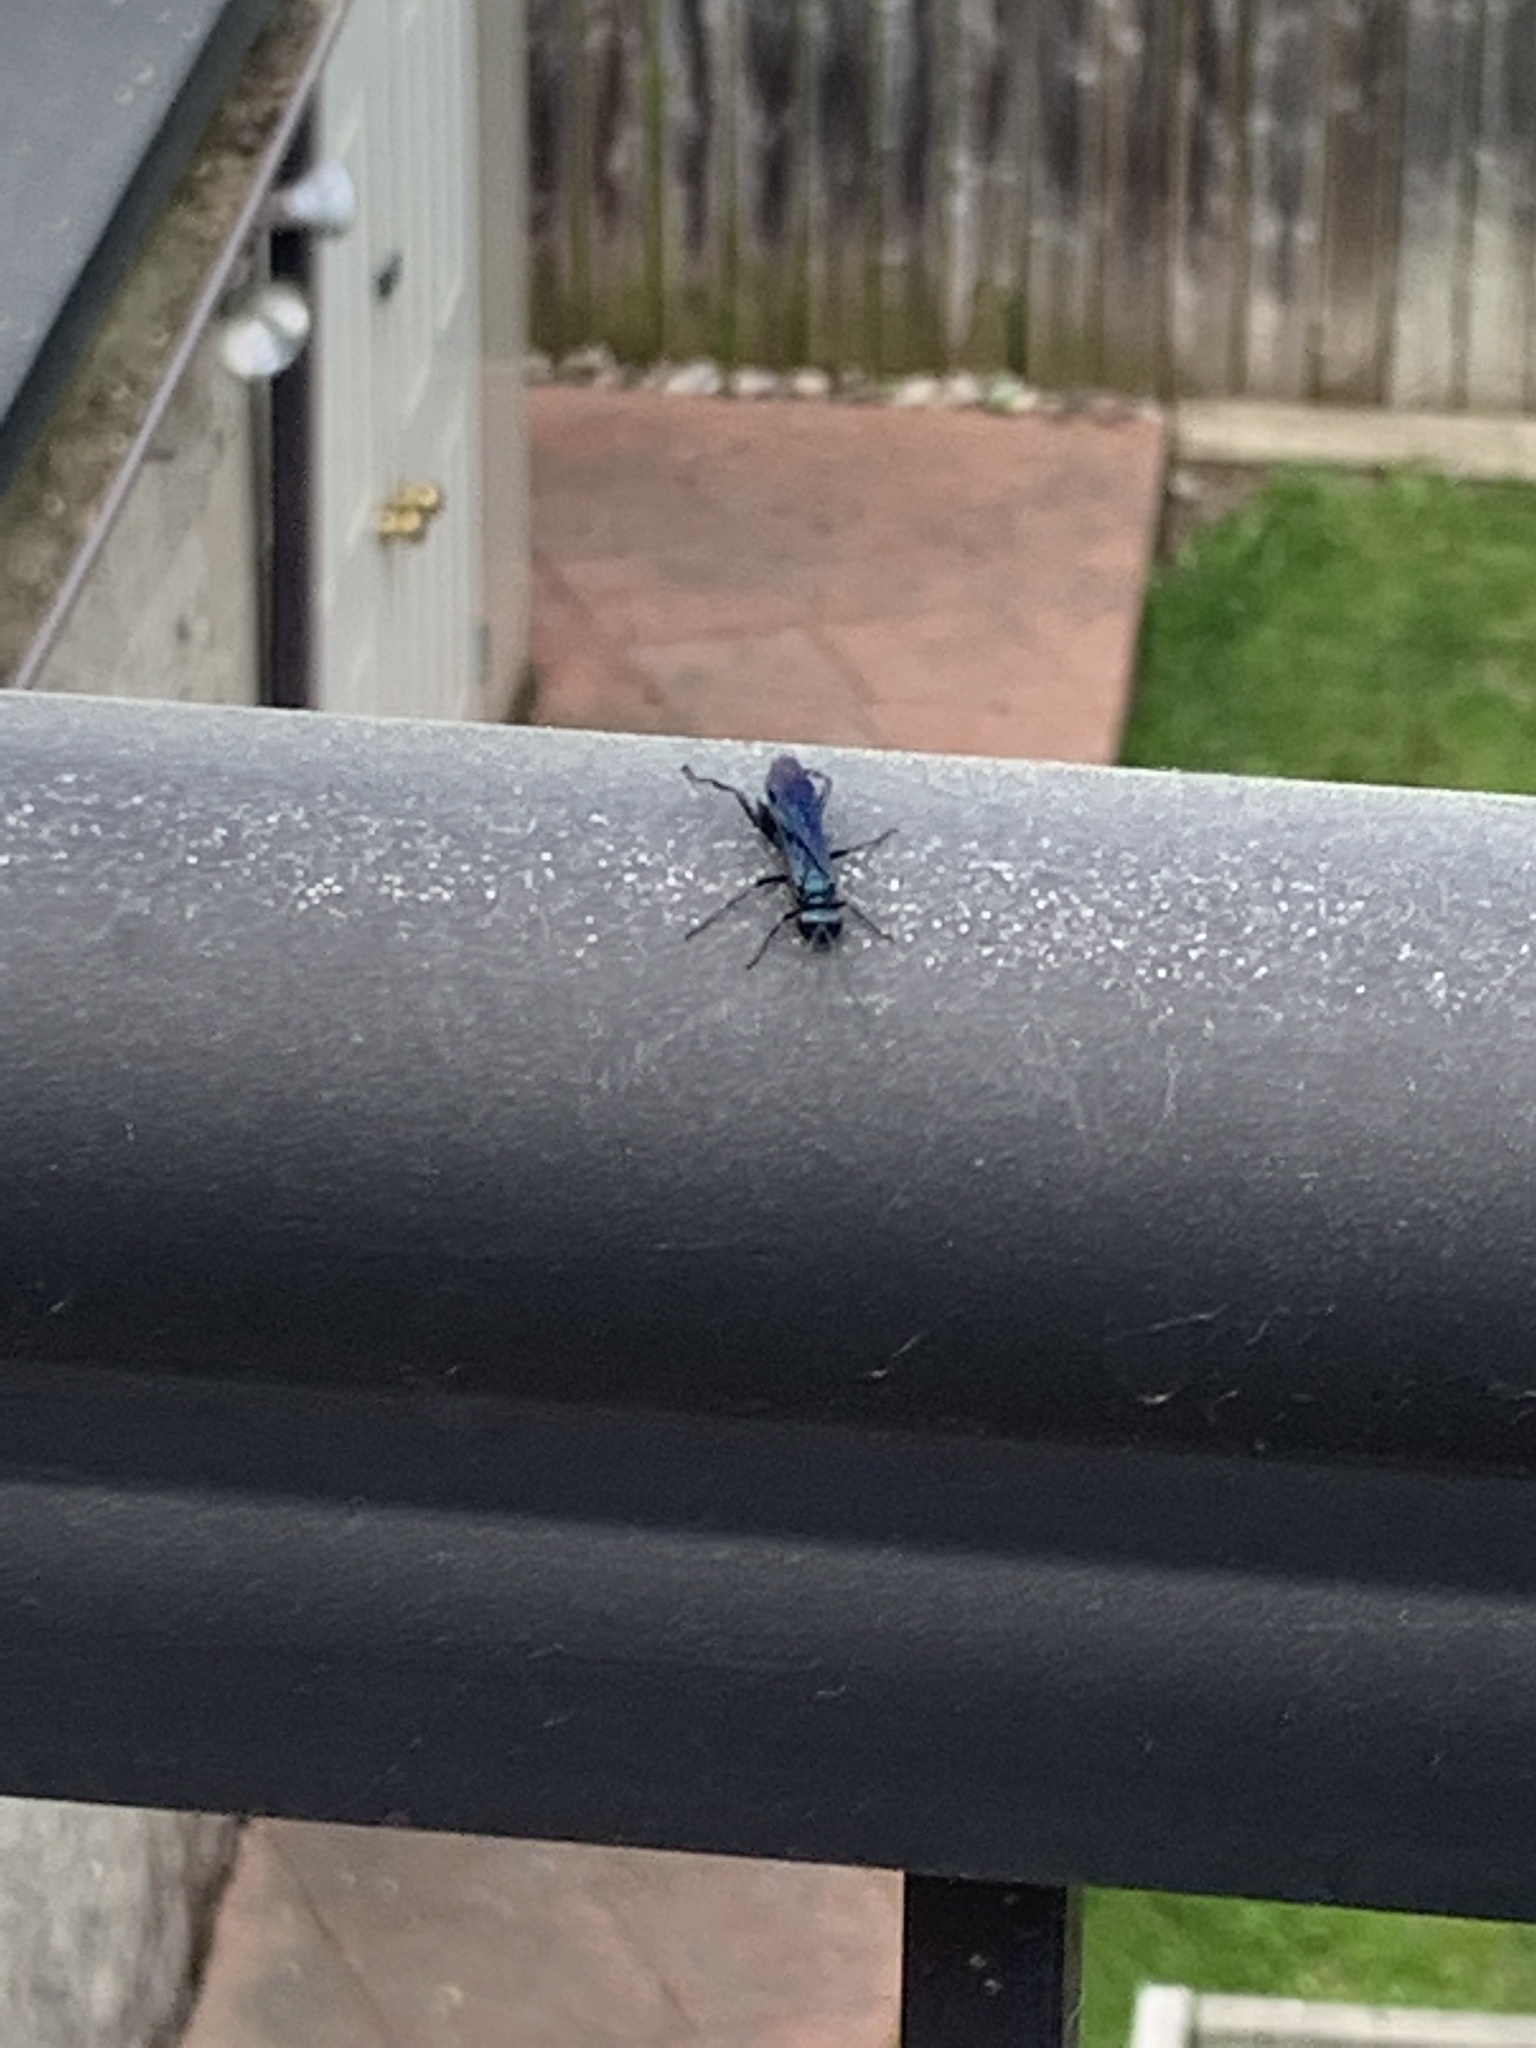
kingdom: Animalia
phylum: Arthropoda
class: Insecta
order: Hymenoptera
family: Sphecidae
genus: Chalybion
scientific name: Chalybion californicum
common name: Mud dauber
